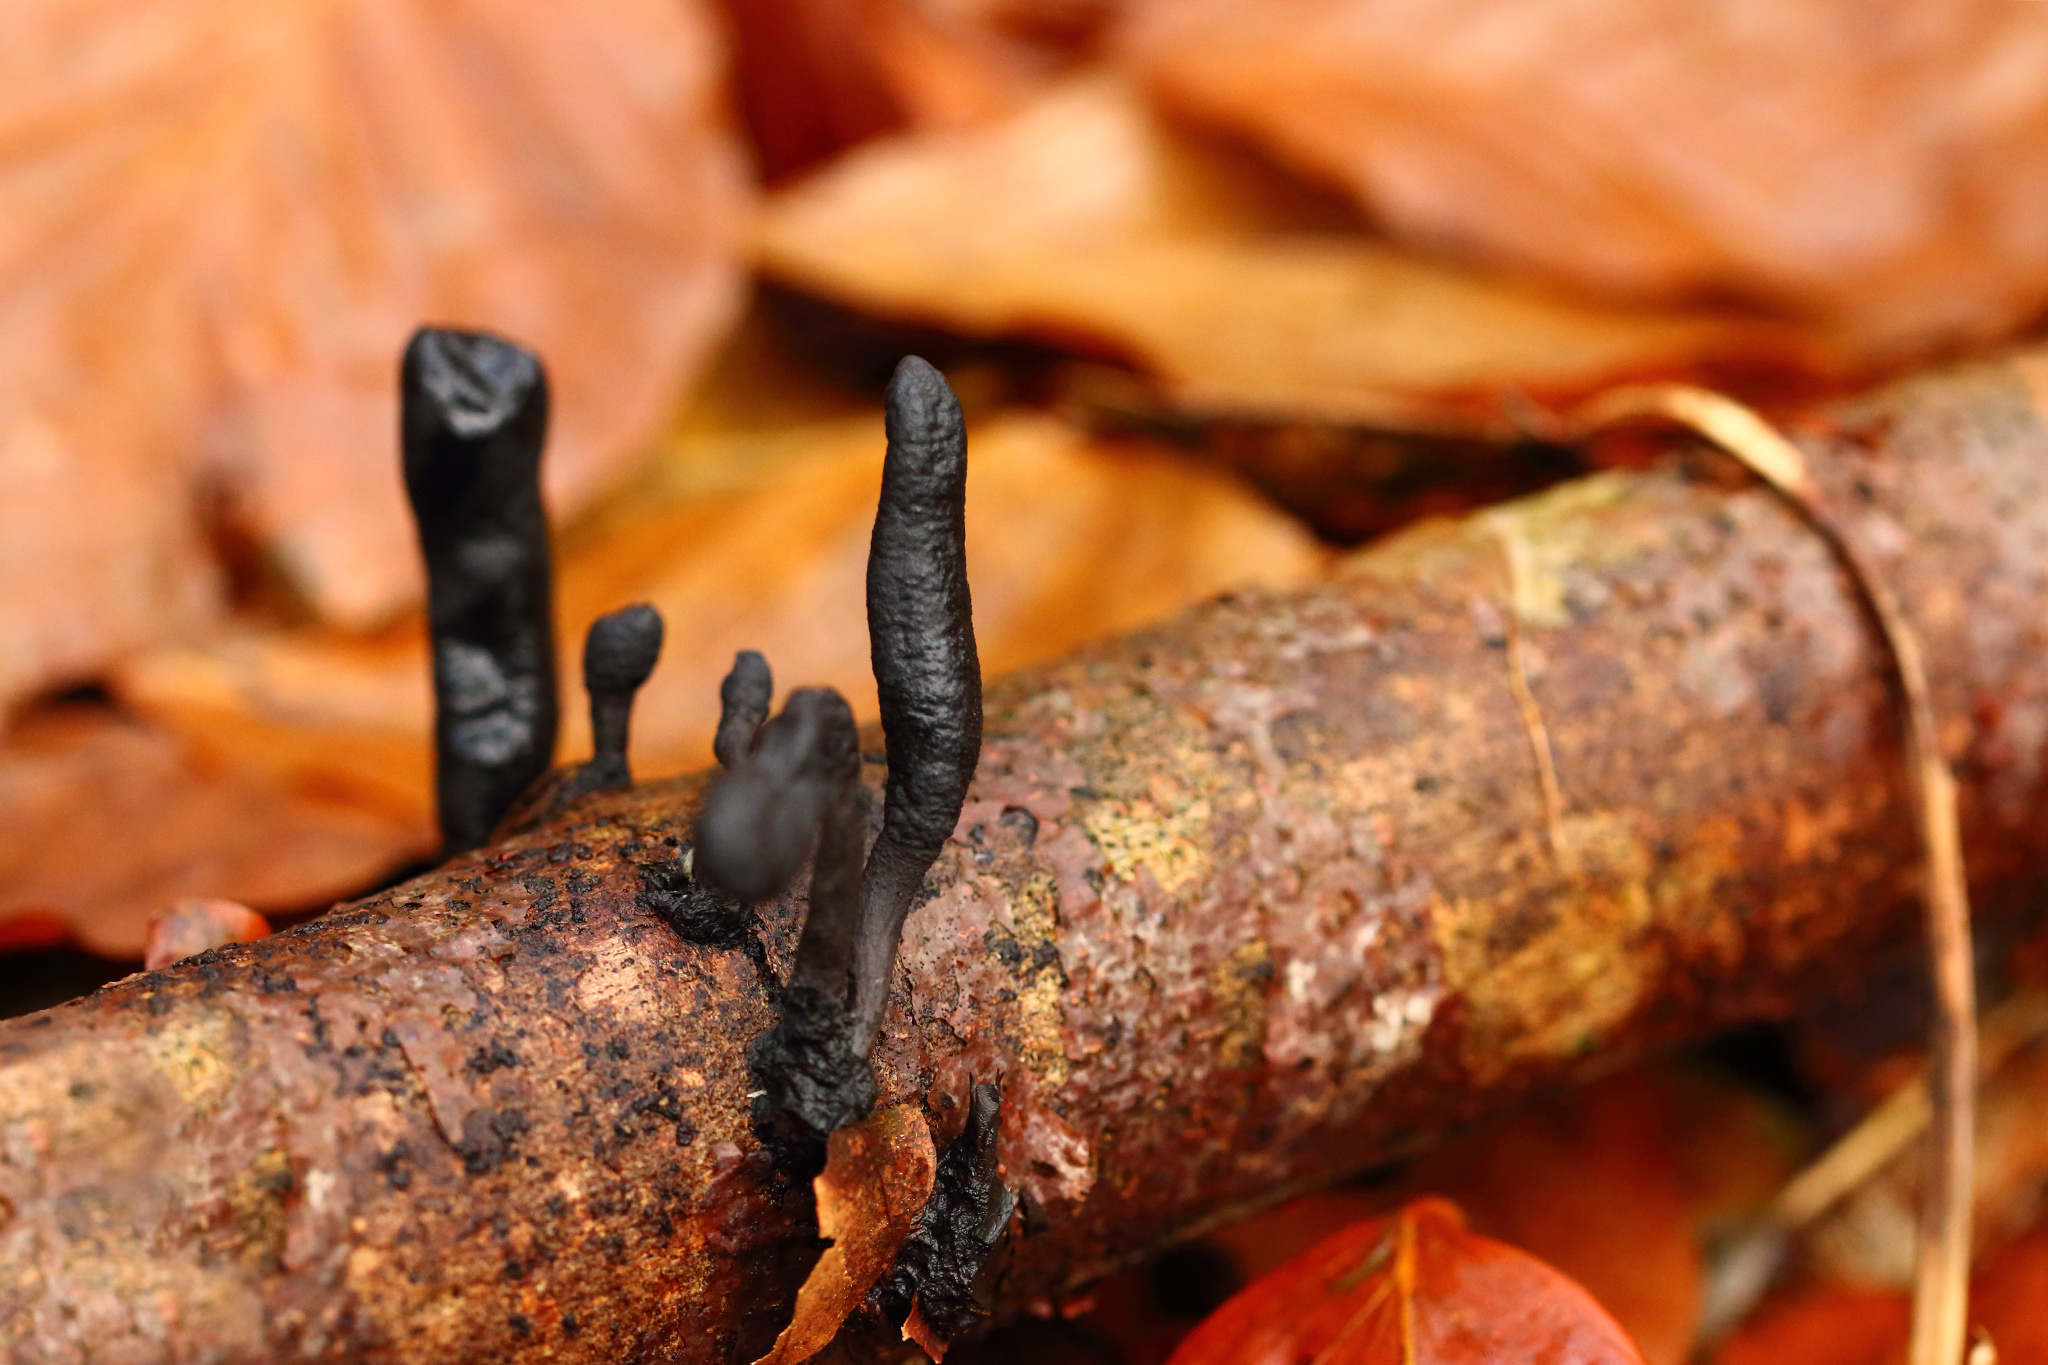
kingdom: Fungi
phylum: Ascomycota
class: Sordariomycetes
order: Xylariales
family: Xylariaceae
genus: Xylaria
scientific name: Xylaria longipes
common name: Dead moll's fingers
